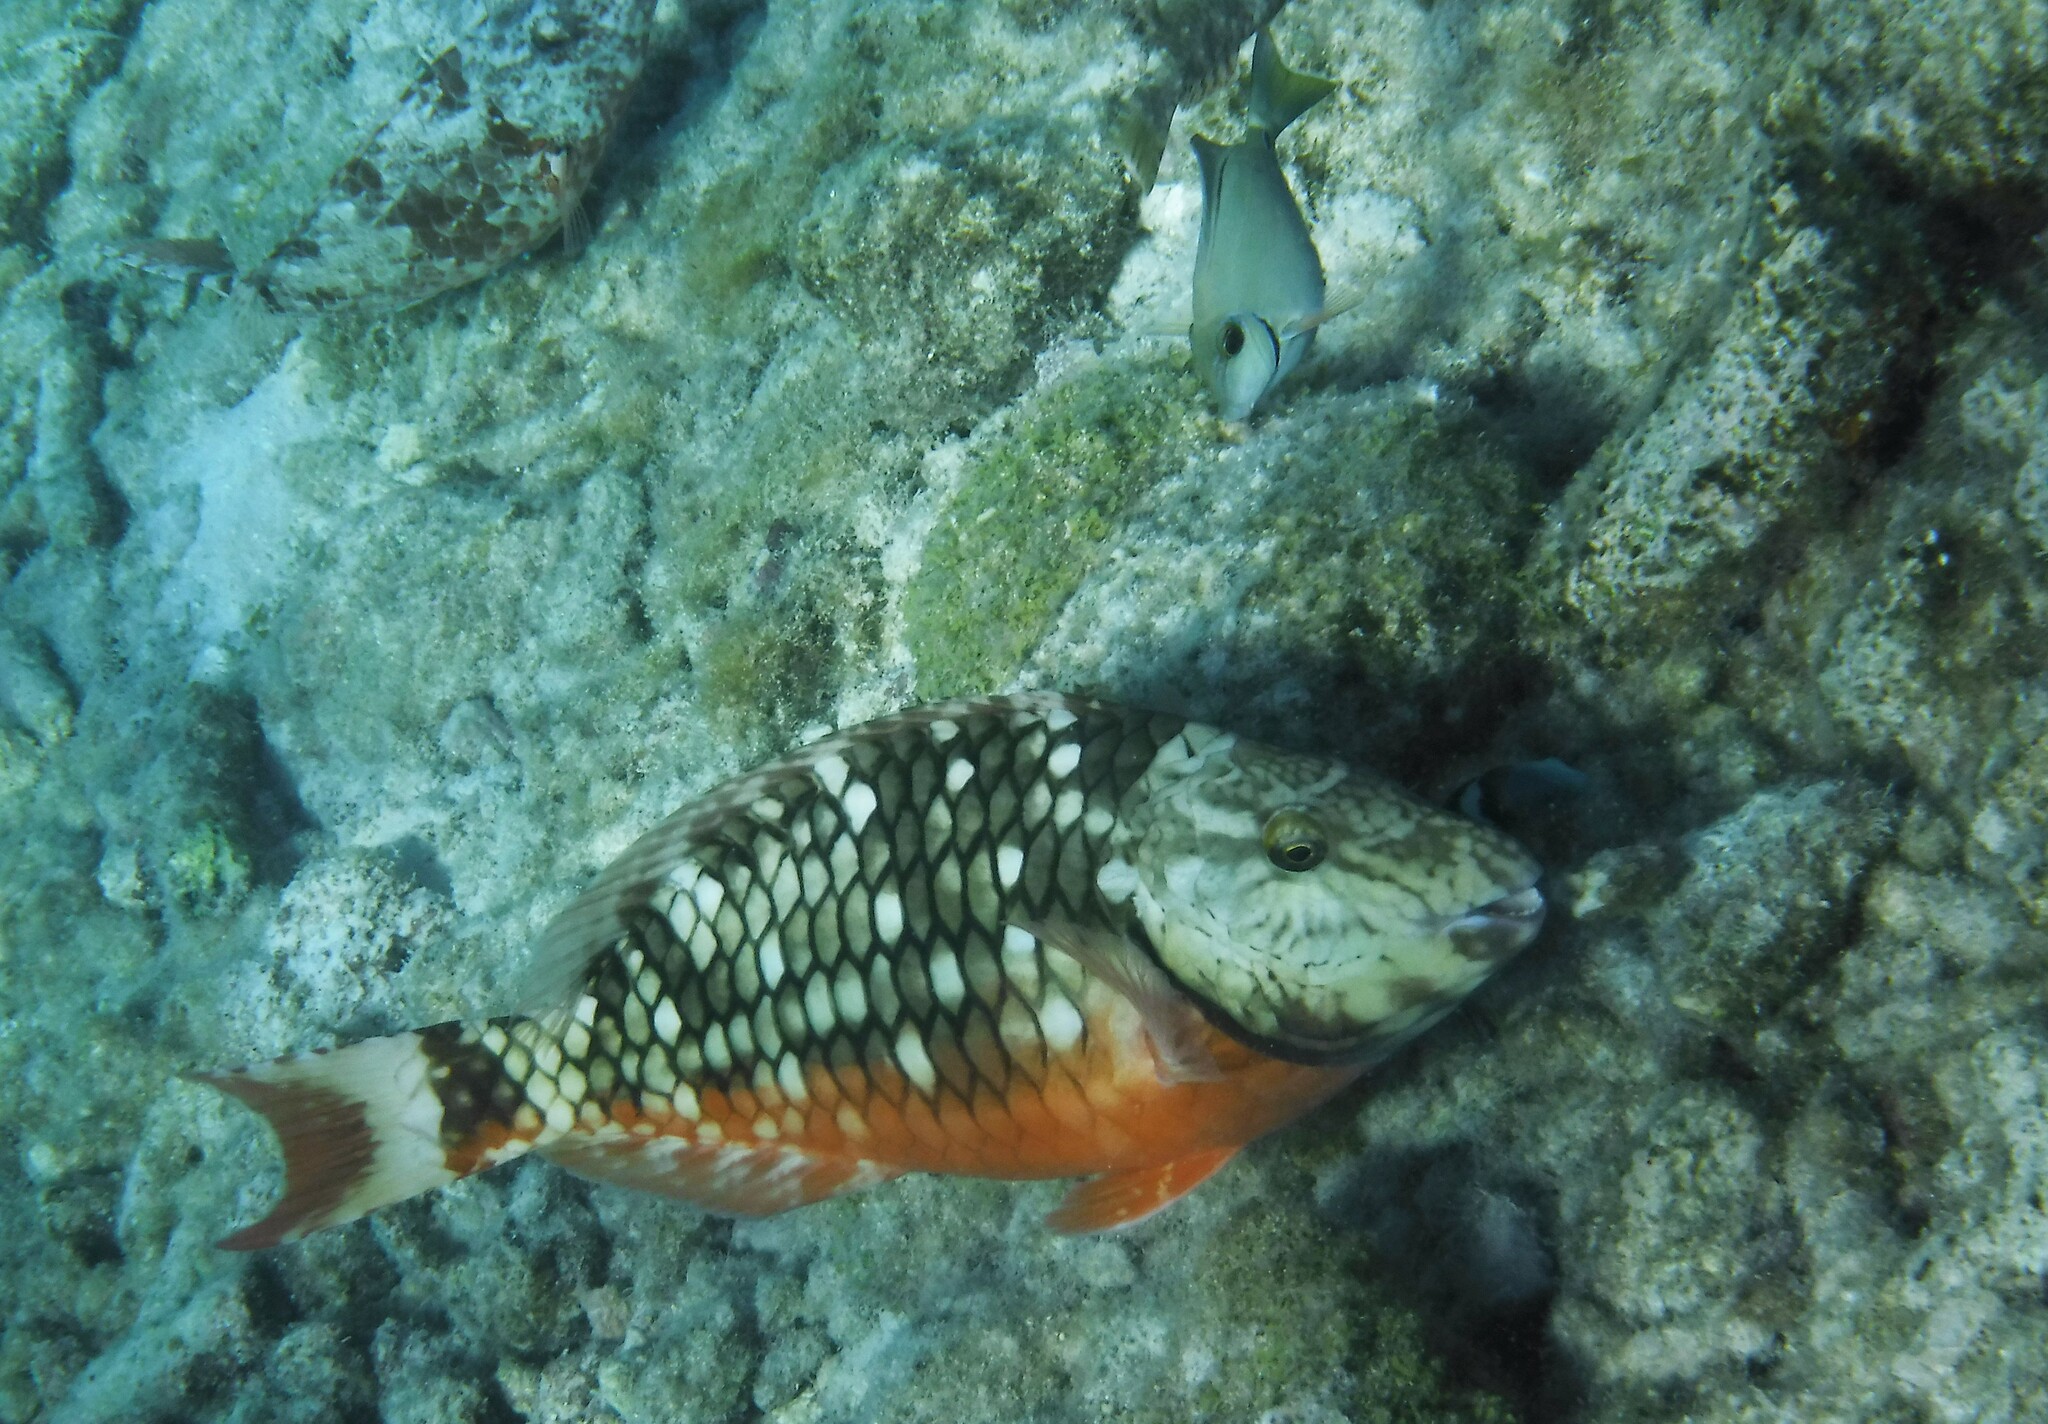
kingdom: Animalia
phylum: Chordata
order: Perciformes
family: Scaridae
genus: Sparisoma
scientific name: Sparisoma viride
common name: Stoplight parrotfish
